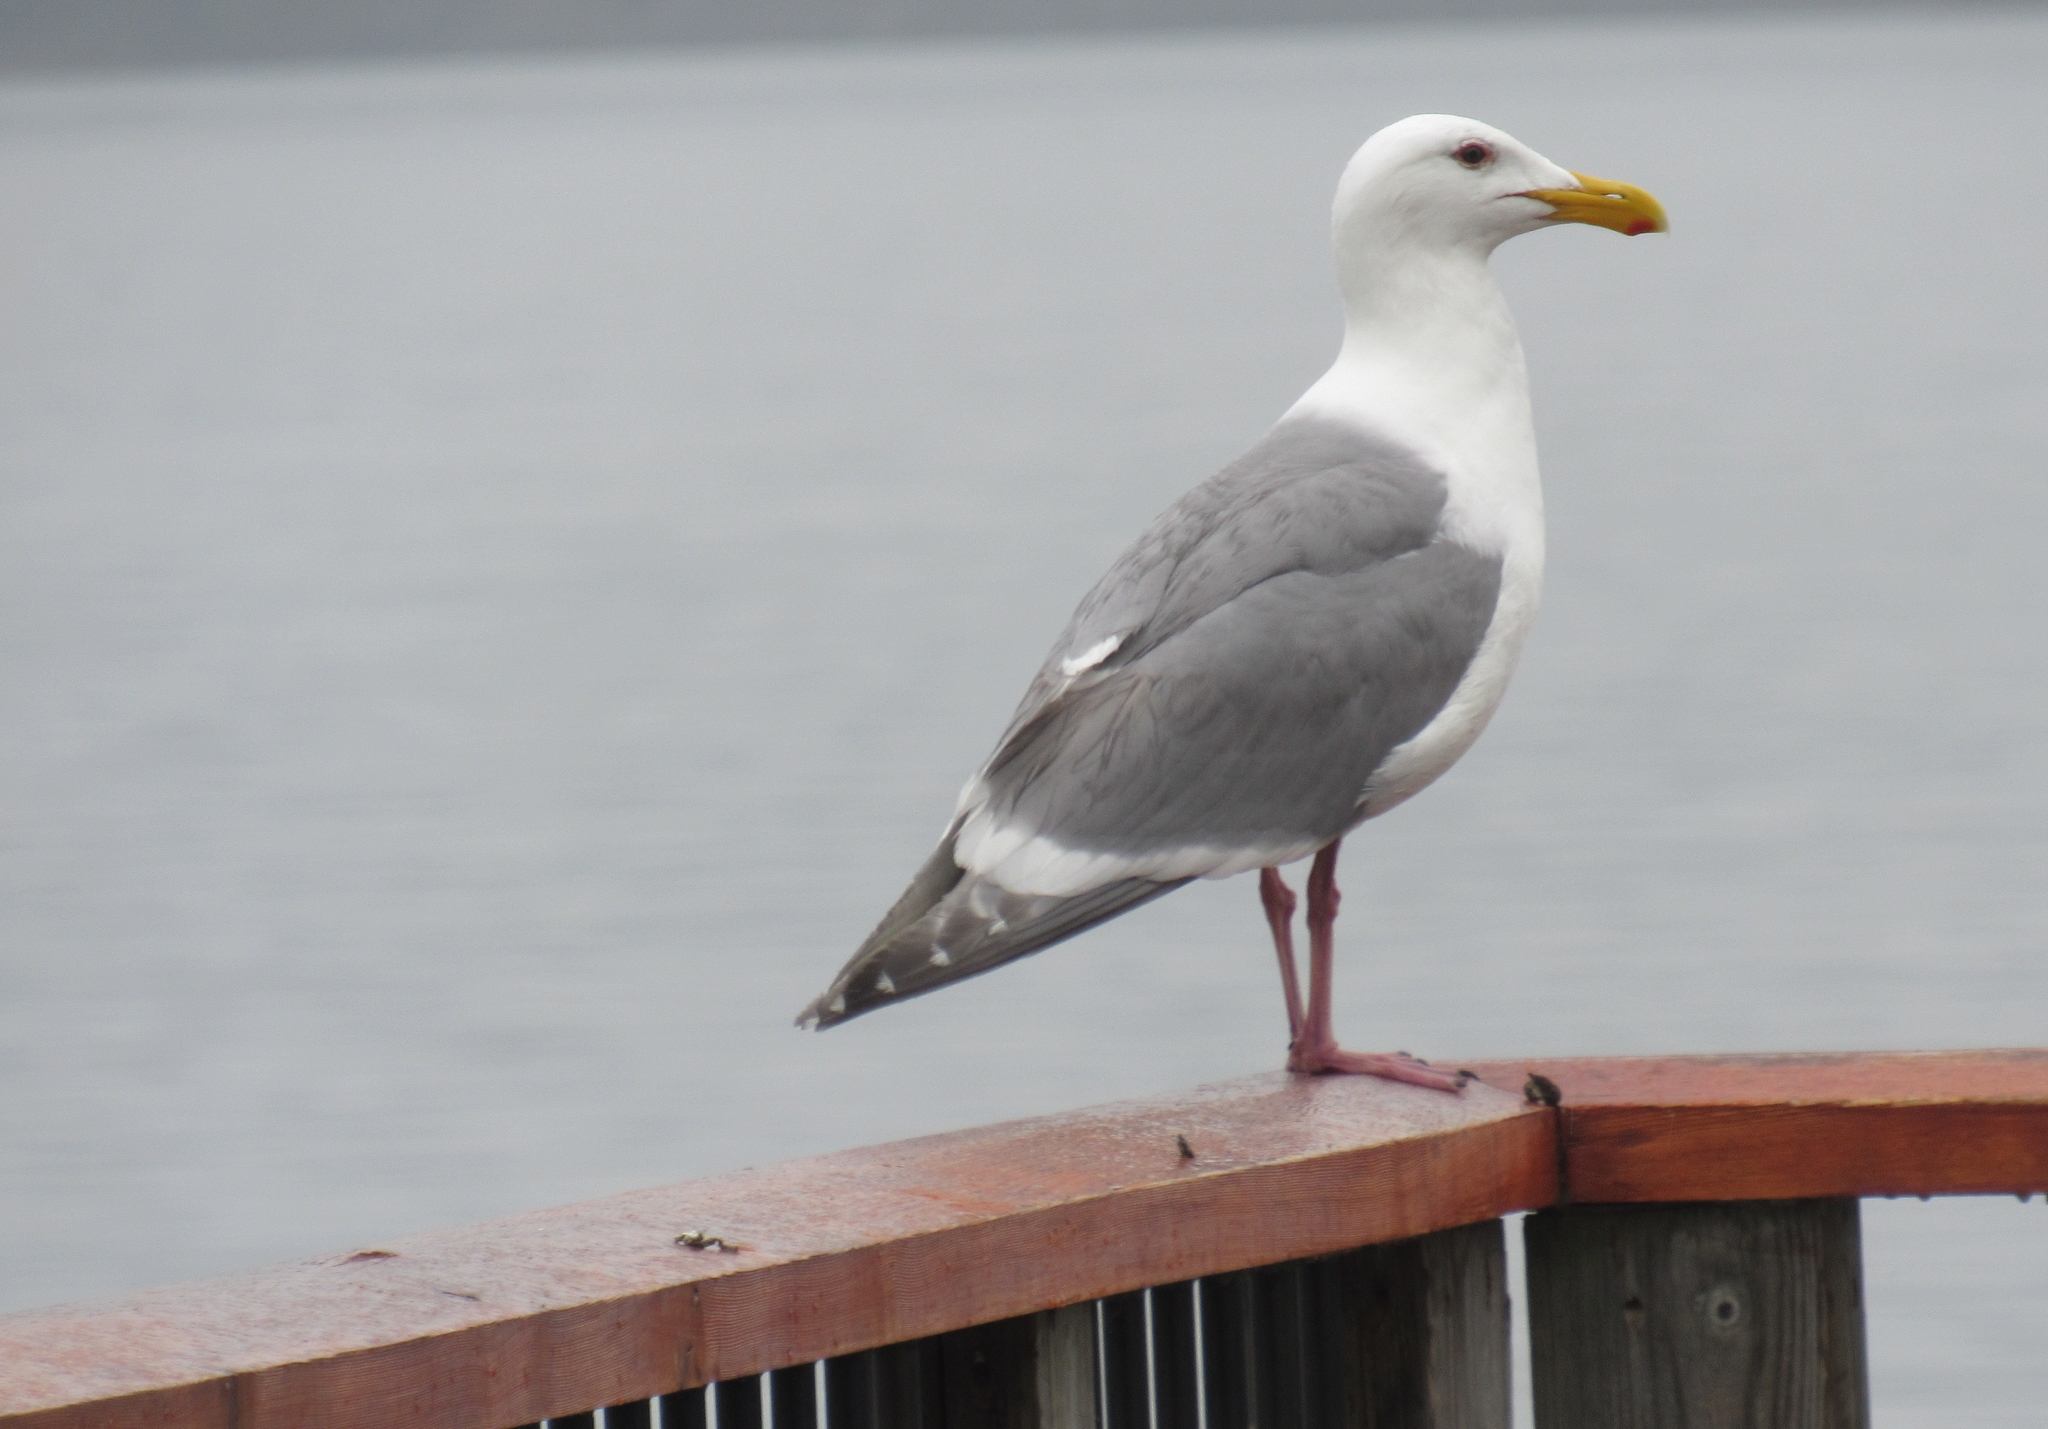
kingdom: Animalia
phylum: Chordata
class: Aves
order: Charadriiformes
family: Laridae
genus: Larus
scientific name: Larus
